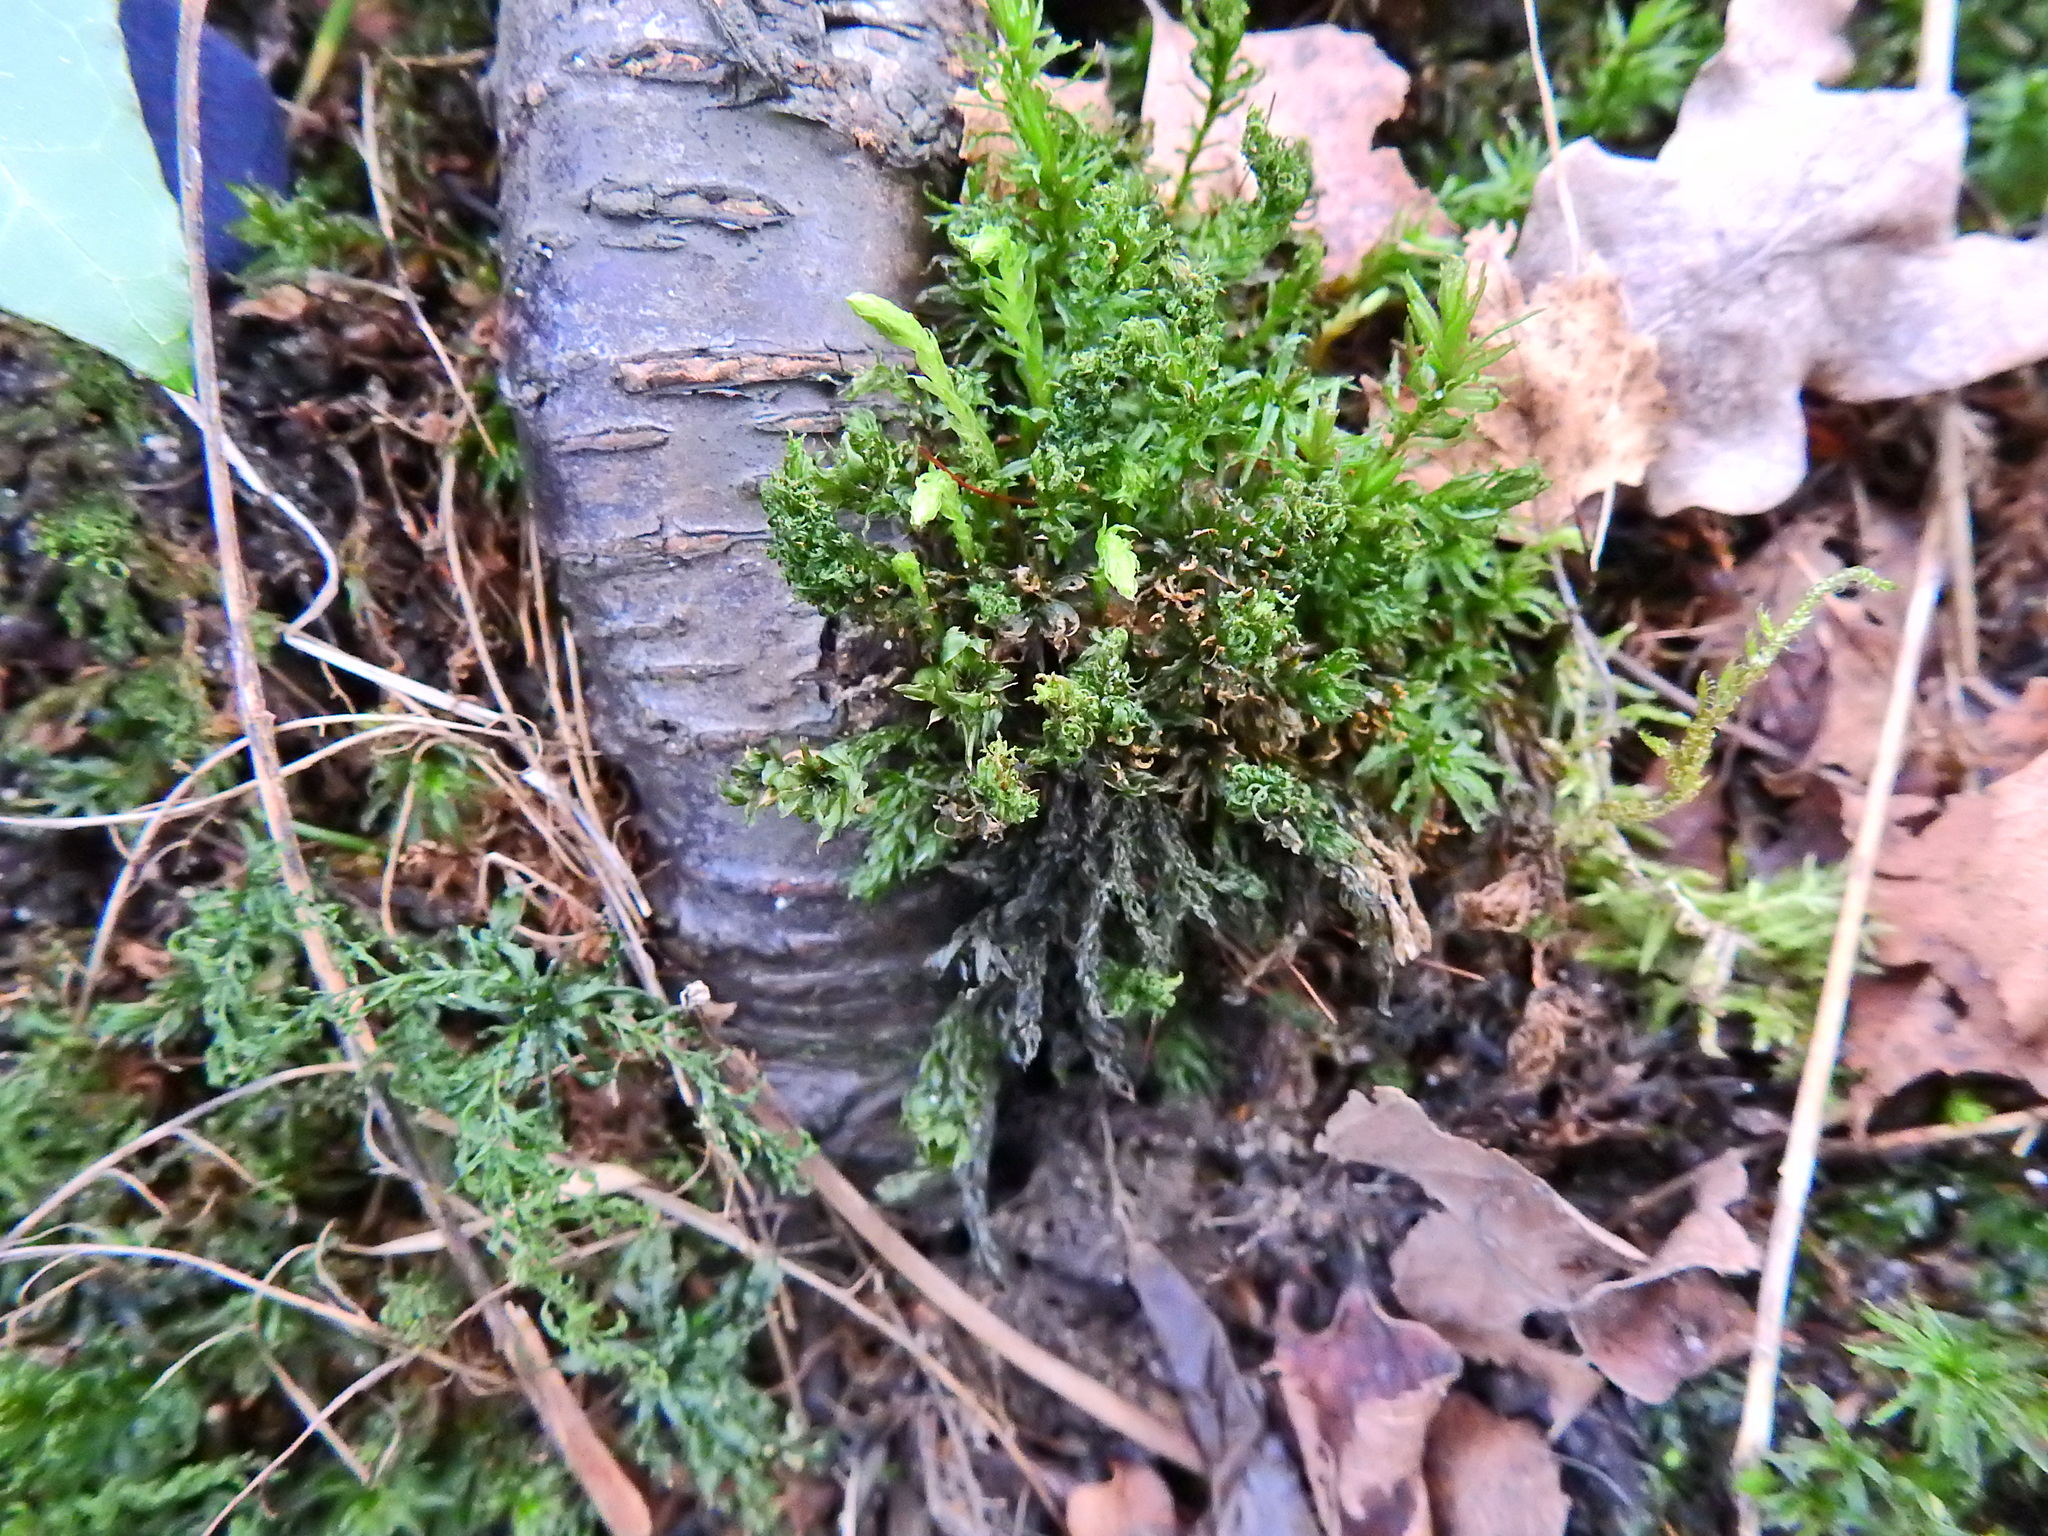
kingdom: Plantae
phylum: Bryophyta
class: Polytrichopsida
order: Polytrichales
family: Polytrichaceae
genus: Atrichum
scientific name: Atrichum undulatum
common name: Common smoothcap
